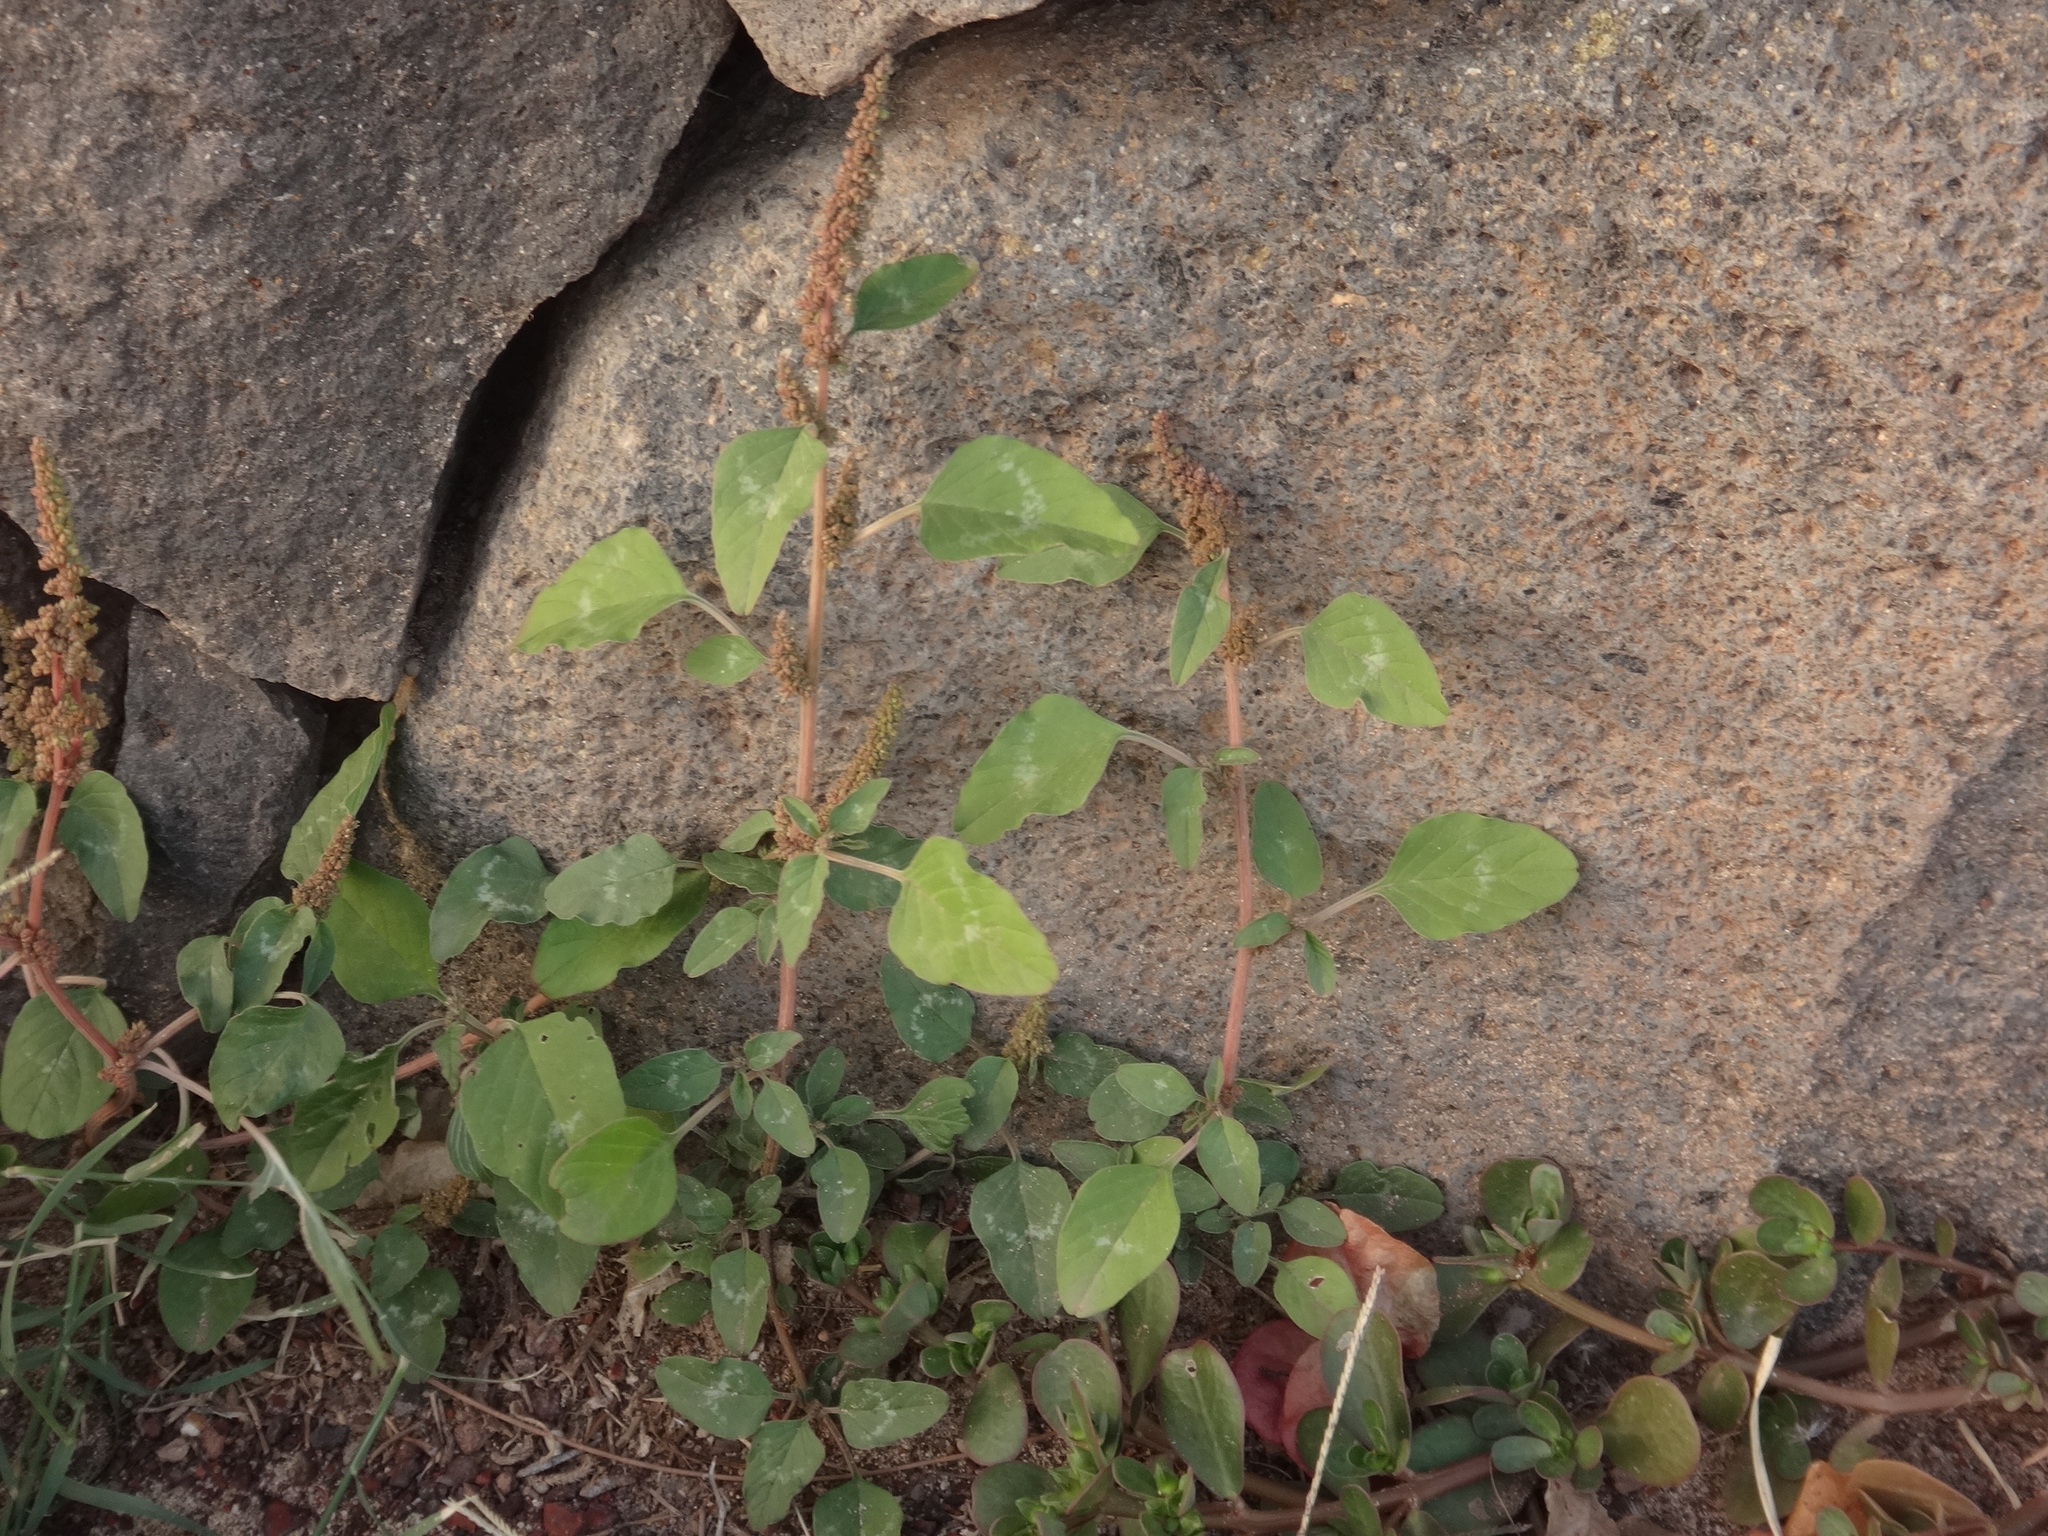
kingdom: Plantae
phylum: Tracheophyta
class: Magnoliopsida
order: Caryophyllales
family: Amaranthaceae
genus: Amaranthus
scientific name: Amaranthus viridis
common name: Slender amaranth
